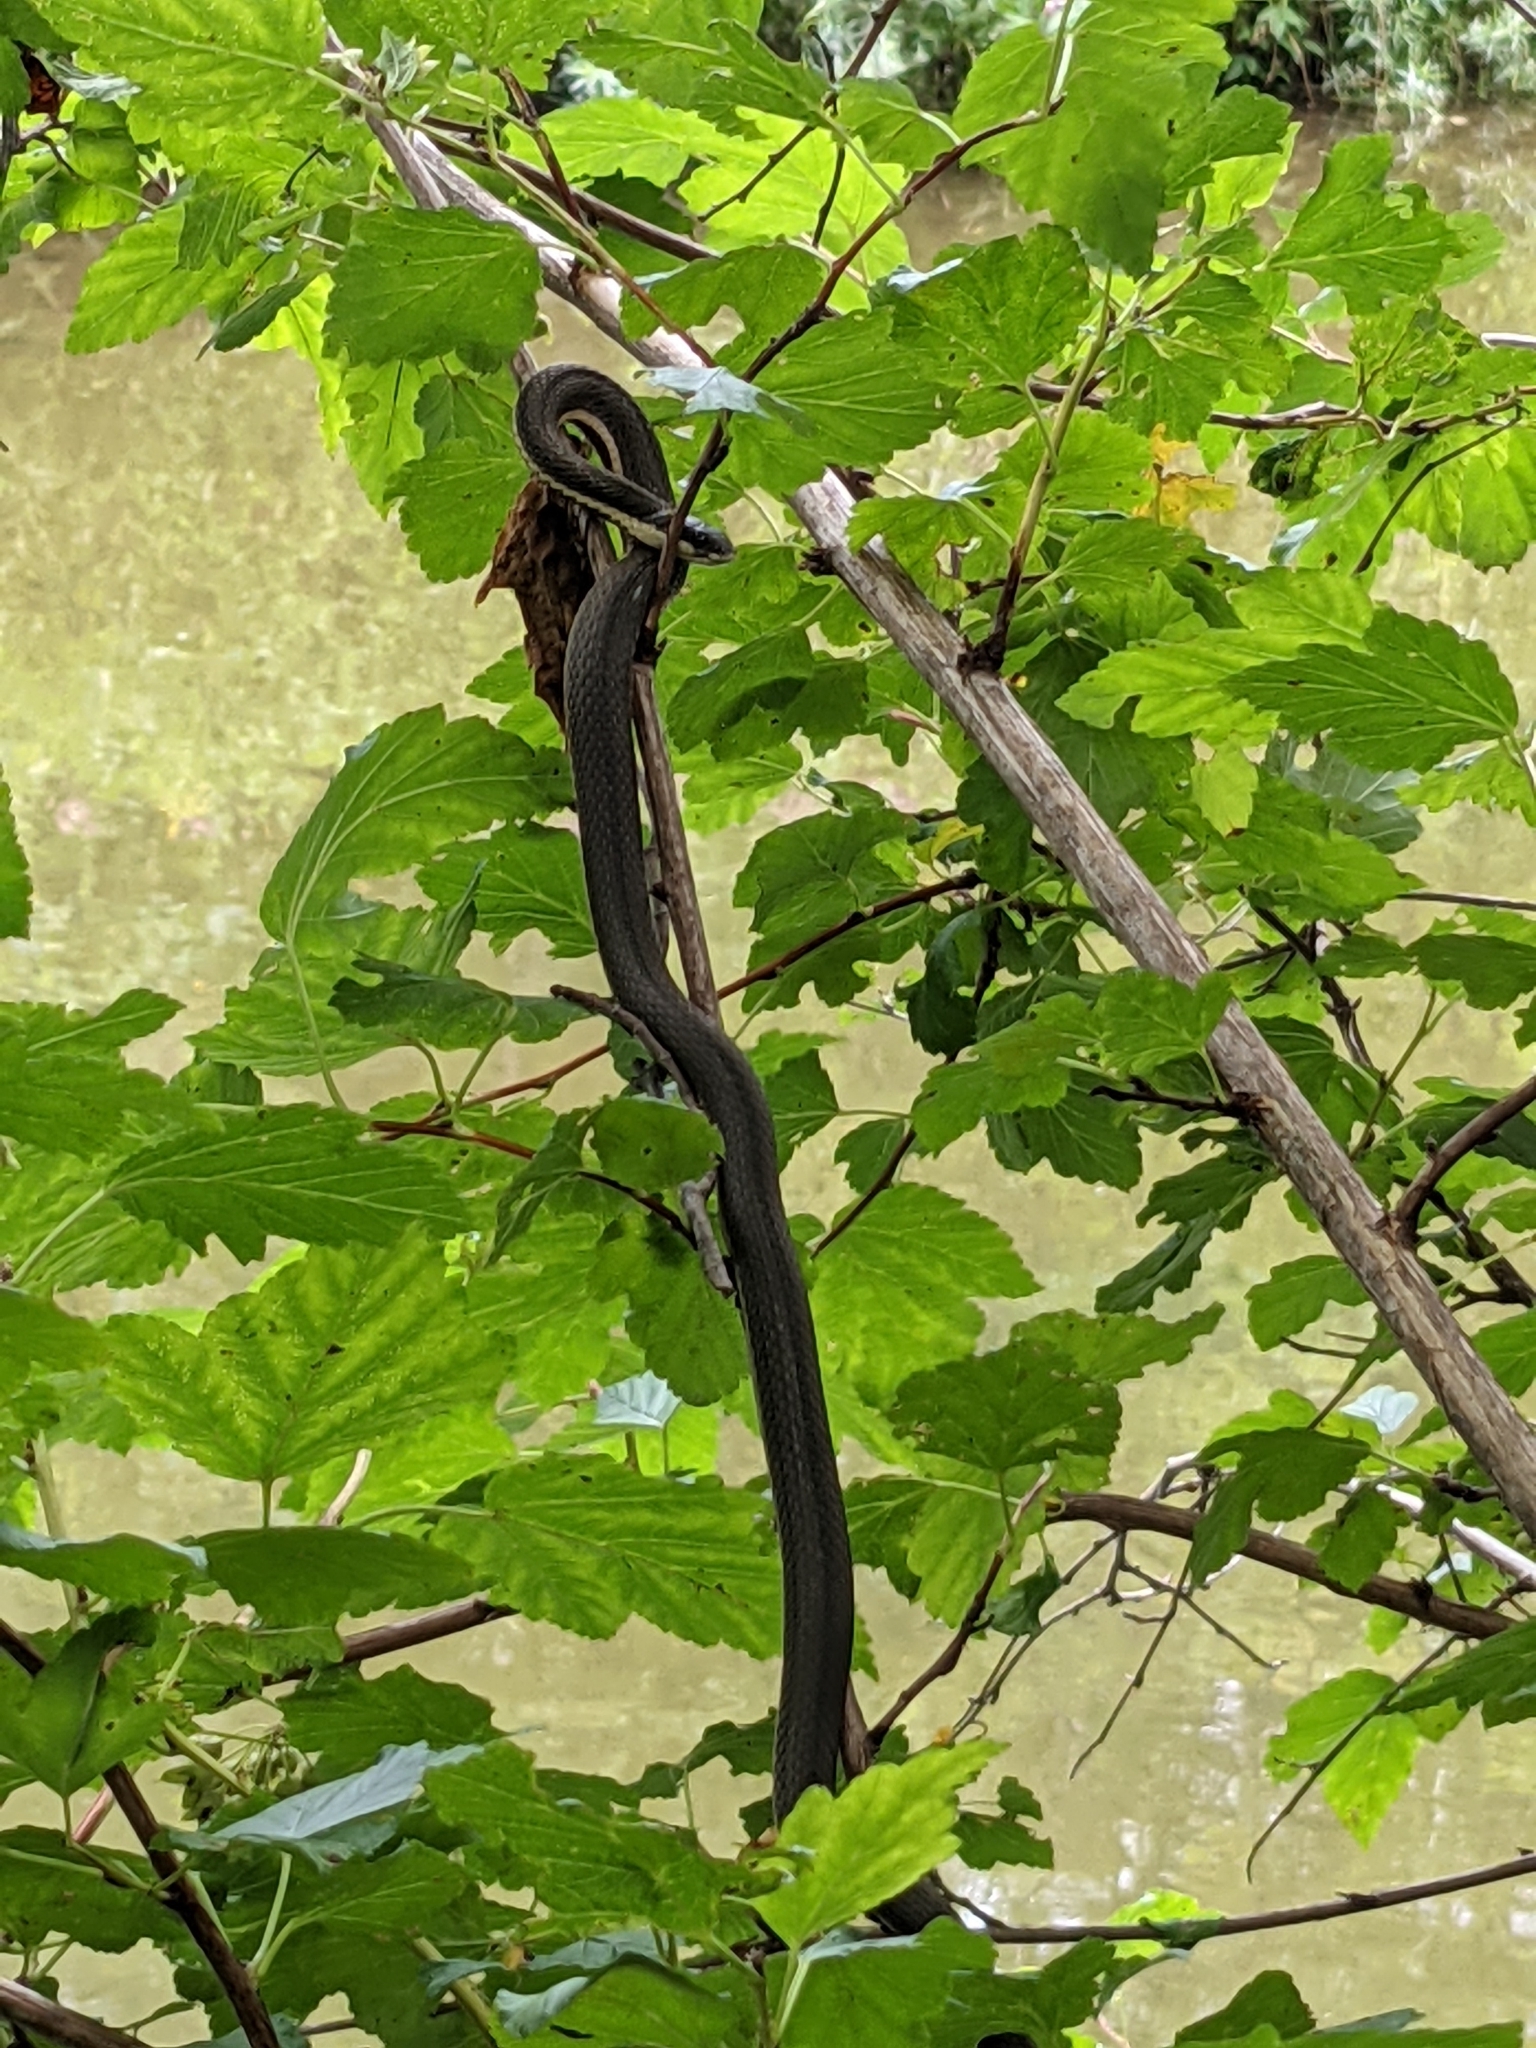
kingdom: Animalia
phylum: Chordata
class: Squamata
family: Colubridae
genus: Regina
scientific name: Regina septemvittata
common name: Queen snake
